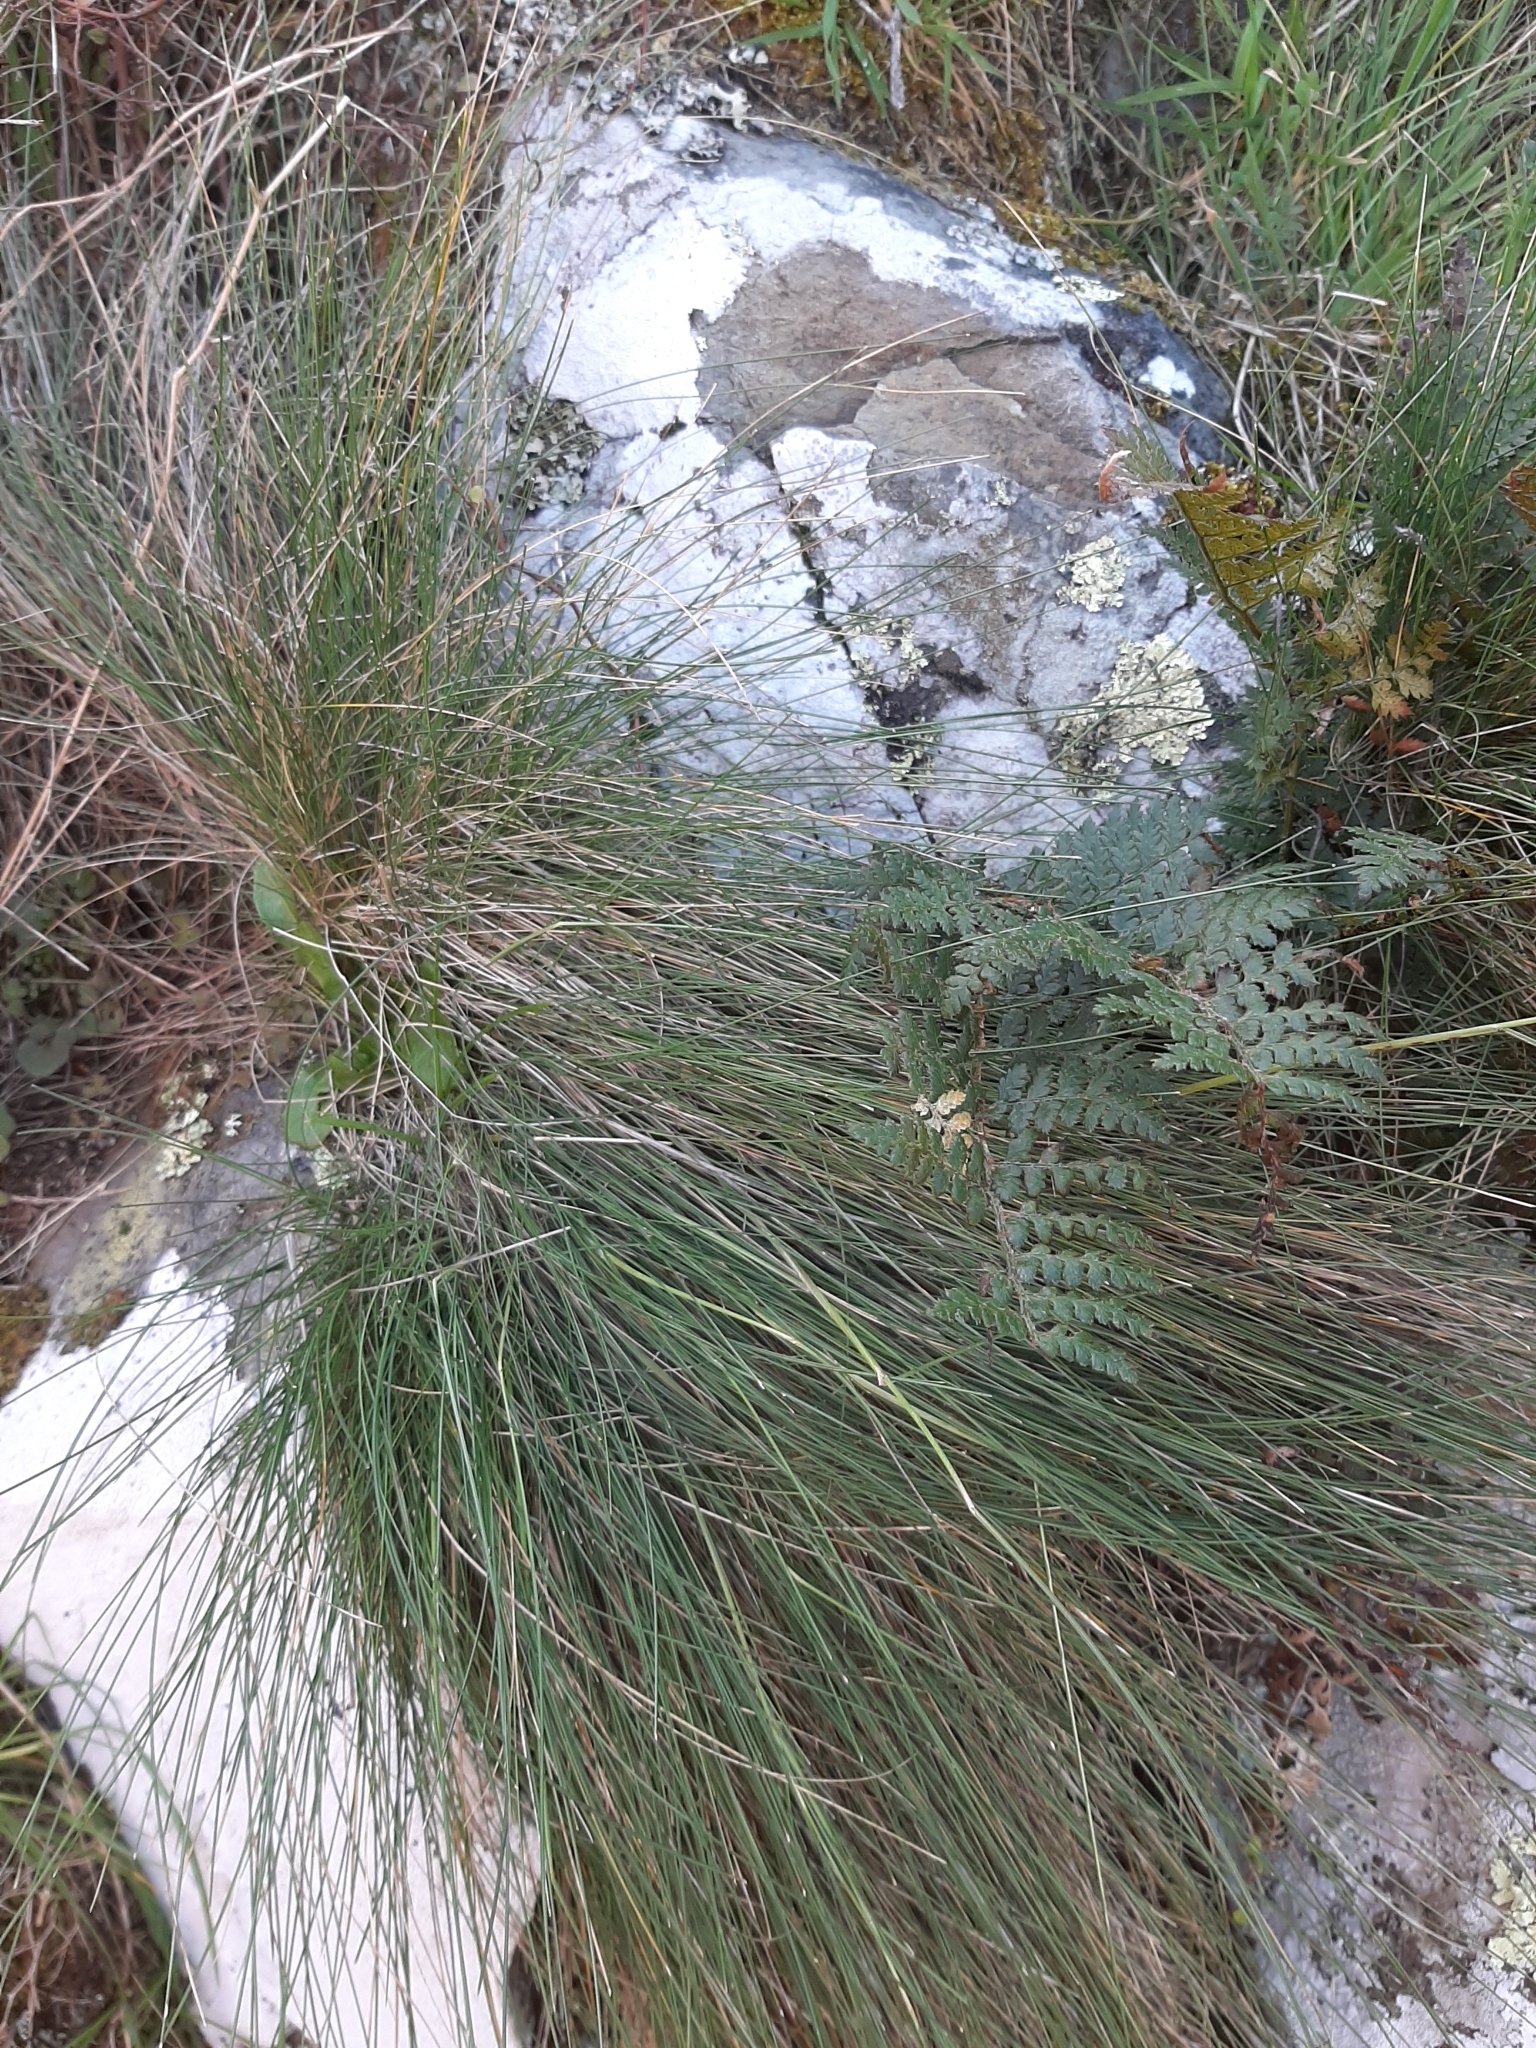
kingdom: Plantae
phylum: Tracheophyta
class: Liliopsida
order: Poales
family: Poaceae
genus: Festuca
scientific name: Festuca actae
